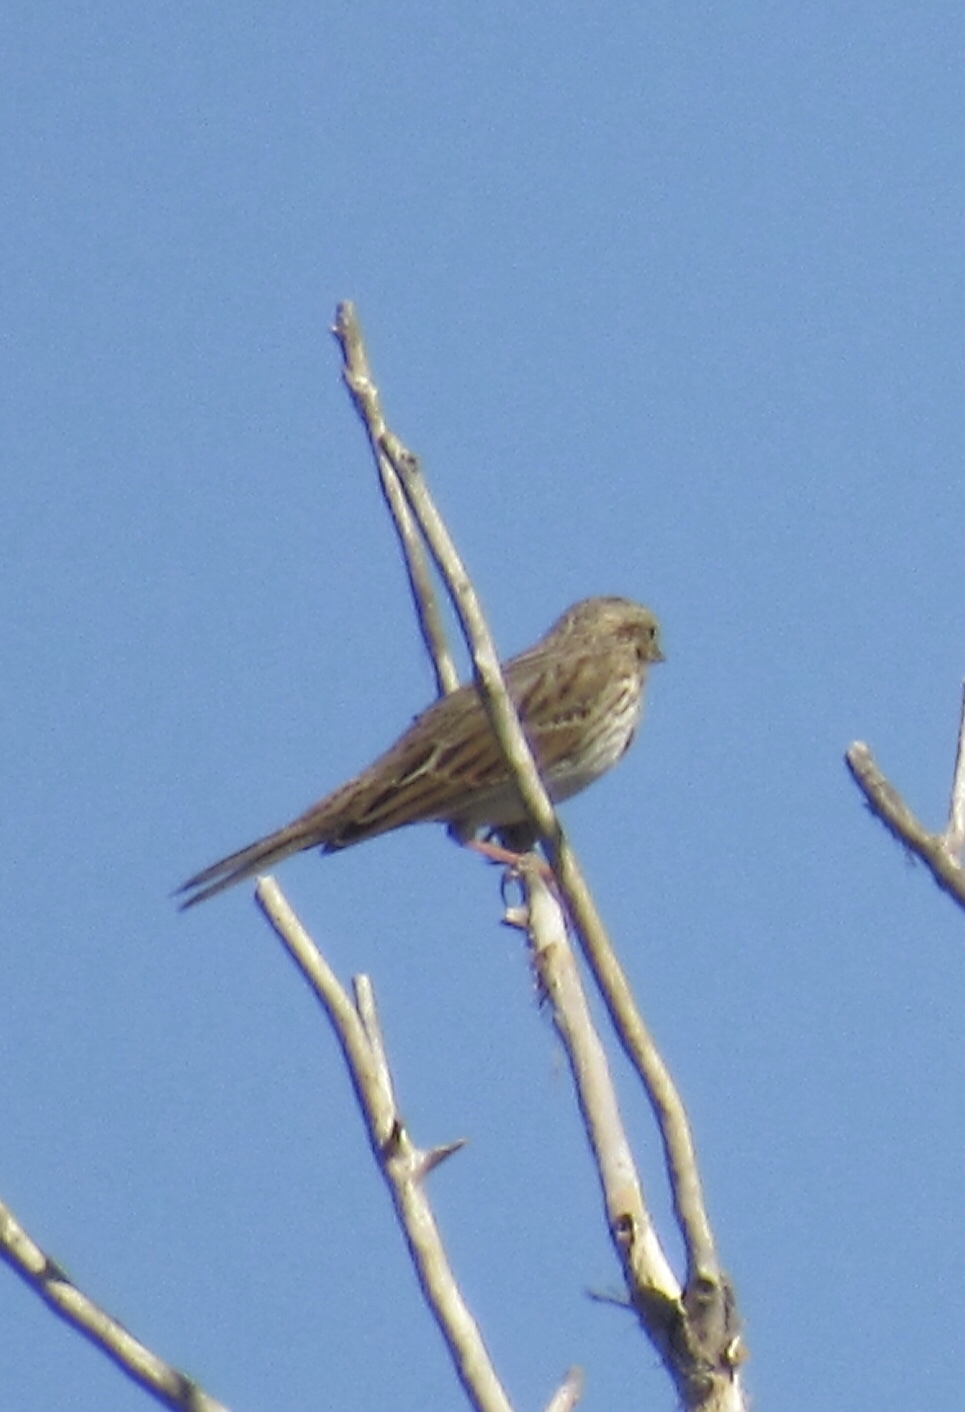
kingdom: Animalia
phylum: Chordata
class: Aves
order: Passeriformes
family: Passerellidae
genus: Passerculus
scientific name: Passerculus sandwichensis
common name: Savannah sparrow
